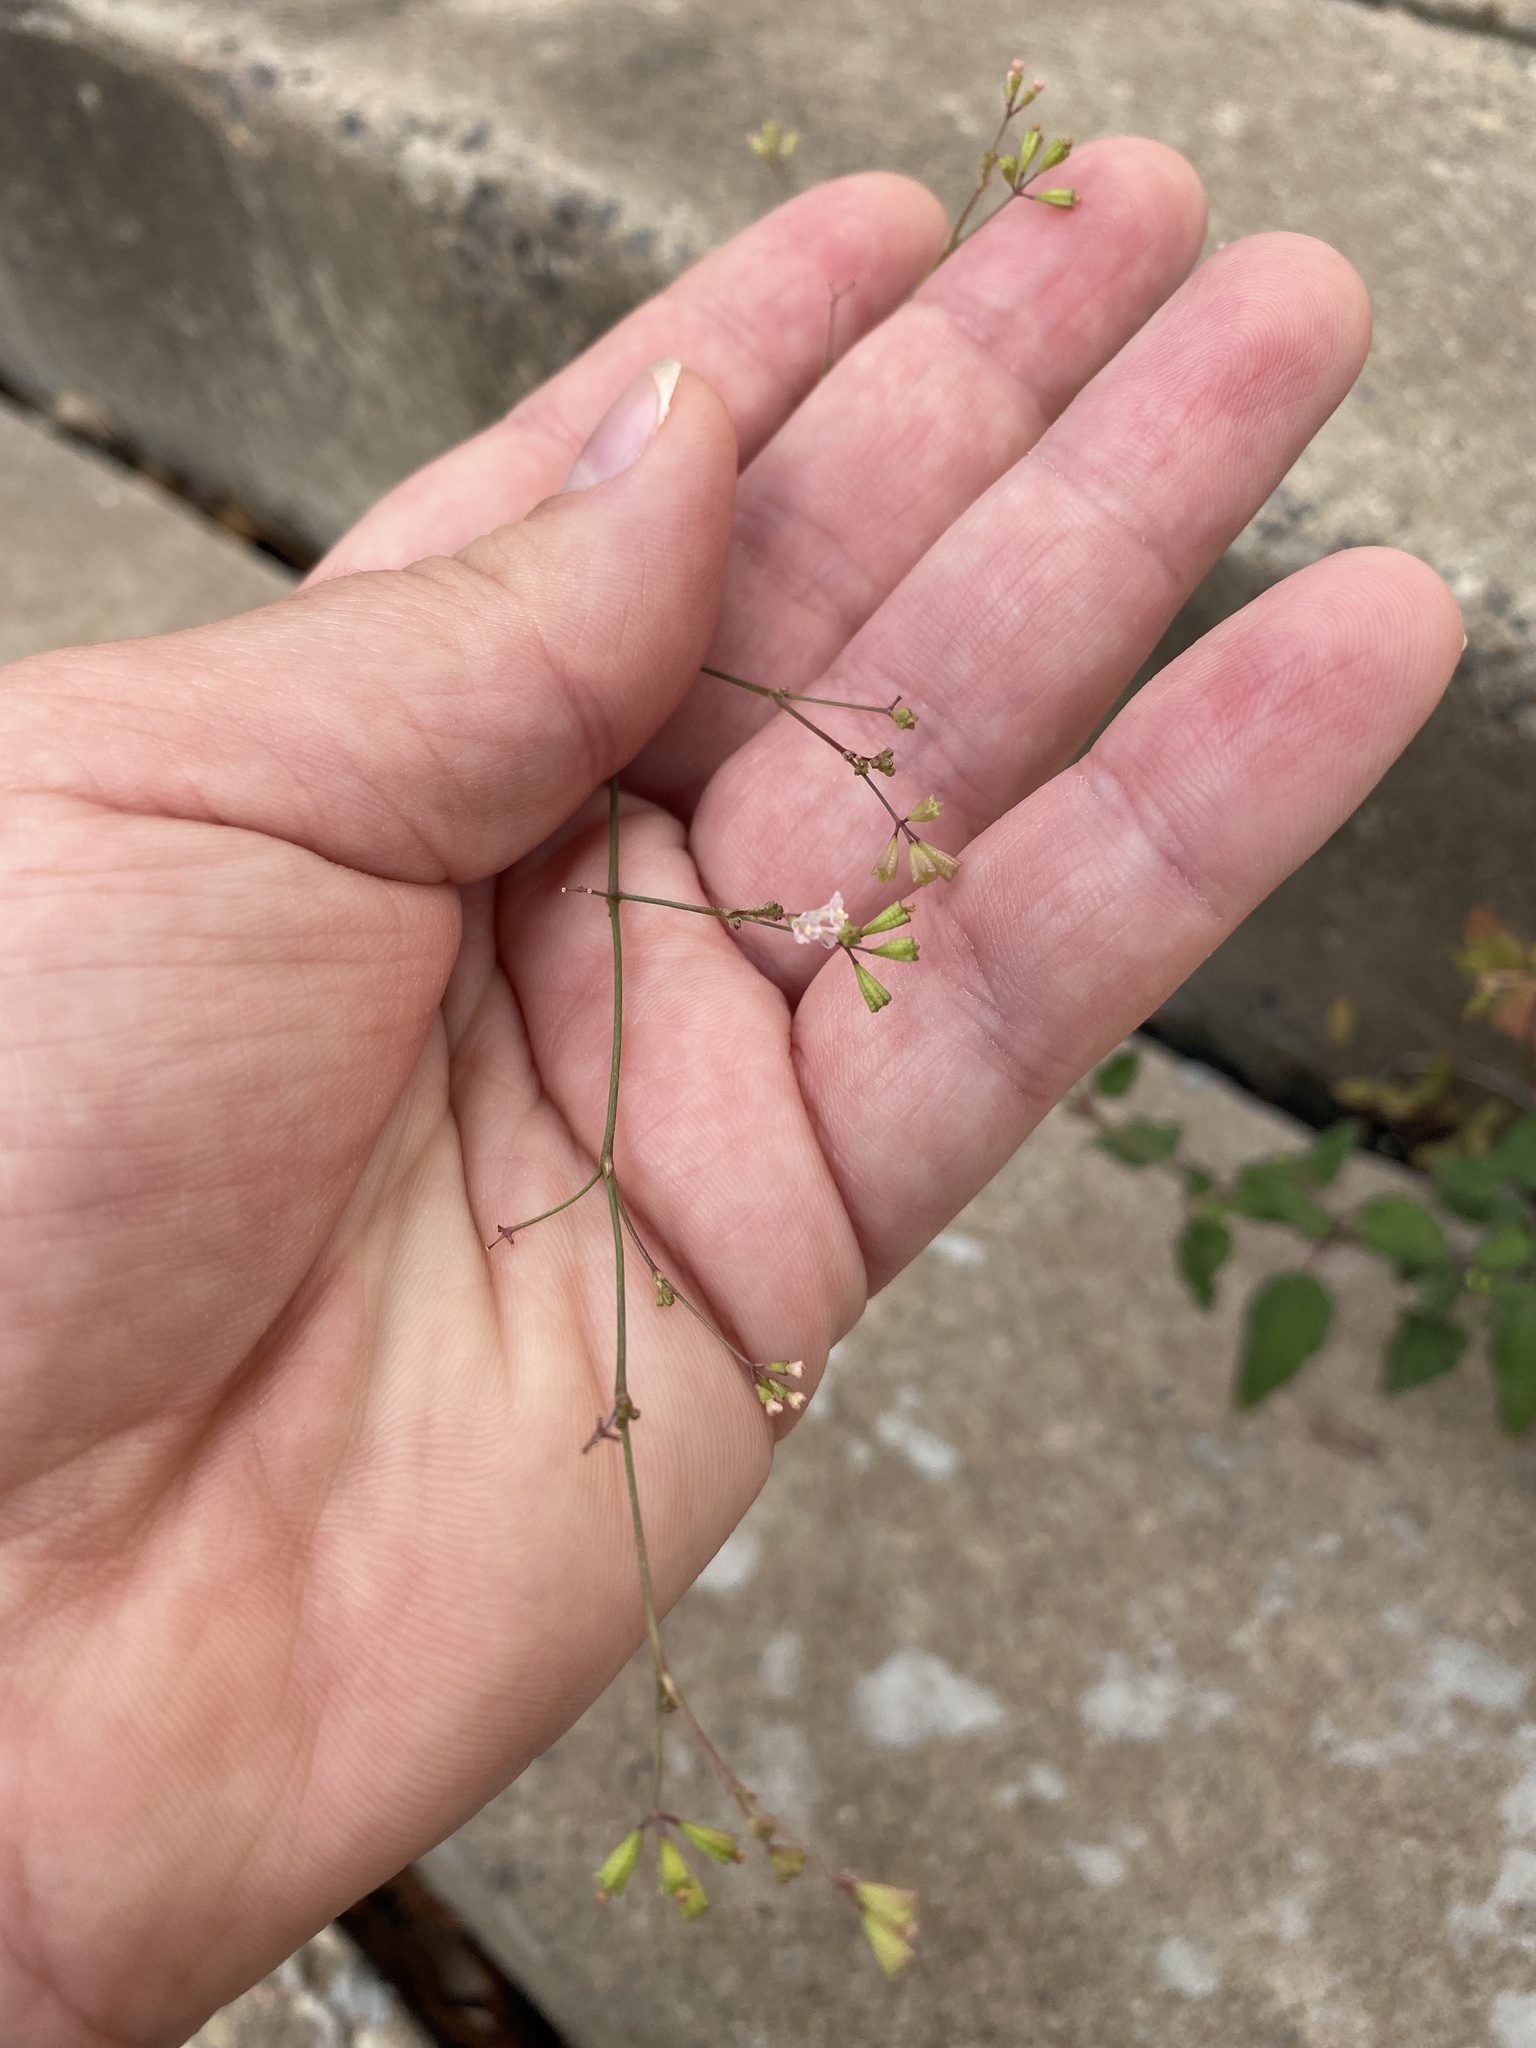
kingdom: Plantae
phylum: Tracheophyta
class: Magnoliopsida
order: Caryophyllales
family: Nyctaginaceae
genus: Boerhavia
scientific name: Boerhavia erecta
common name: Erect spiderling
